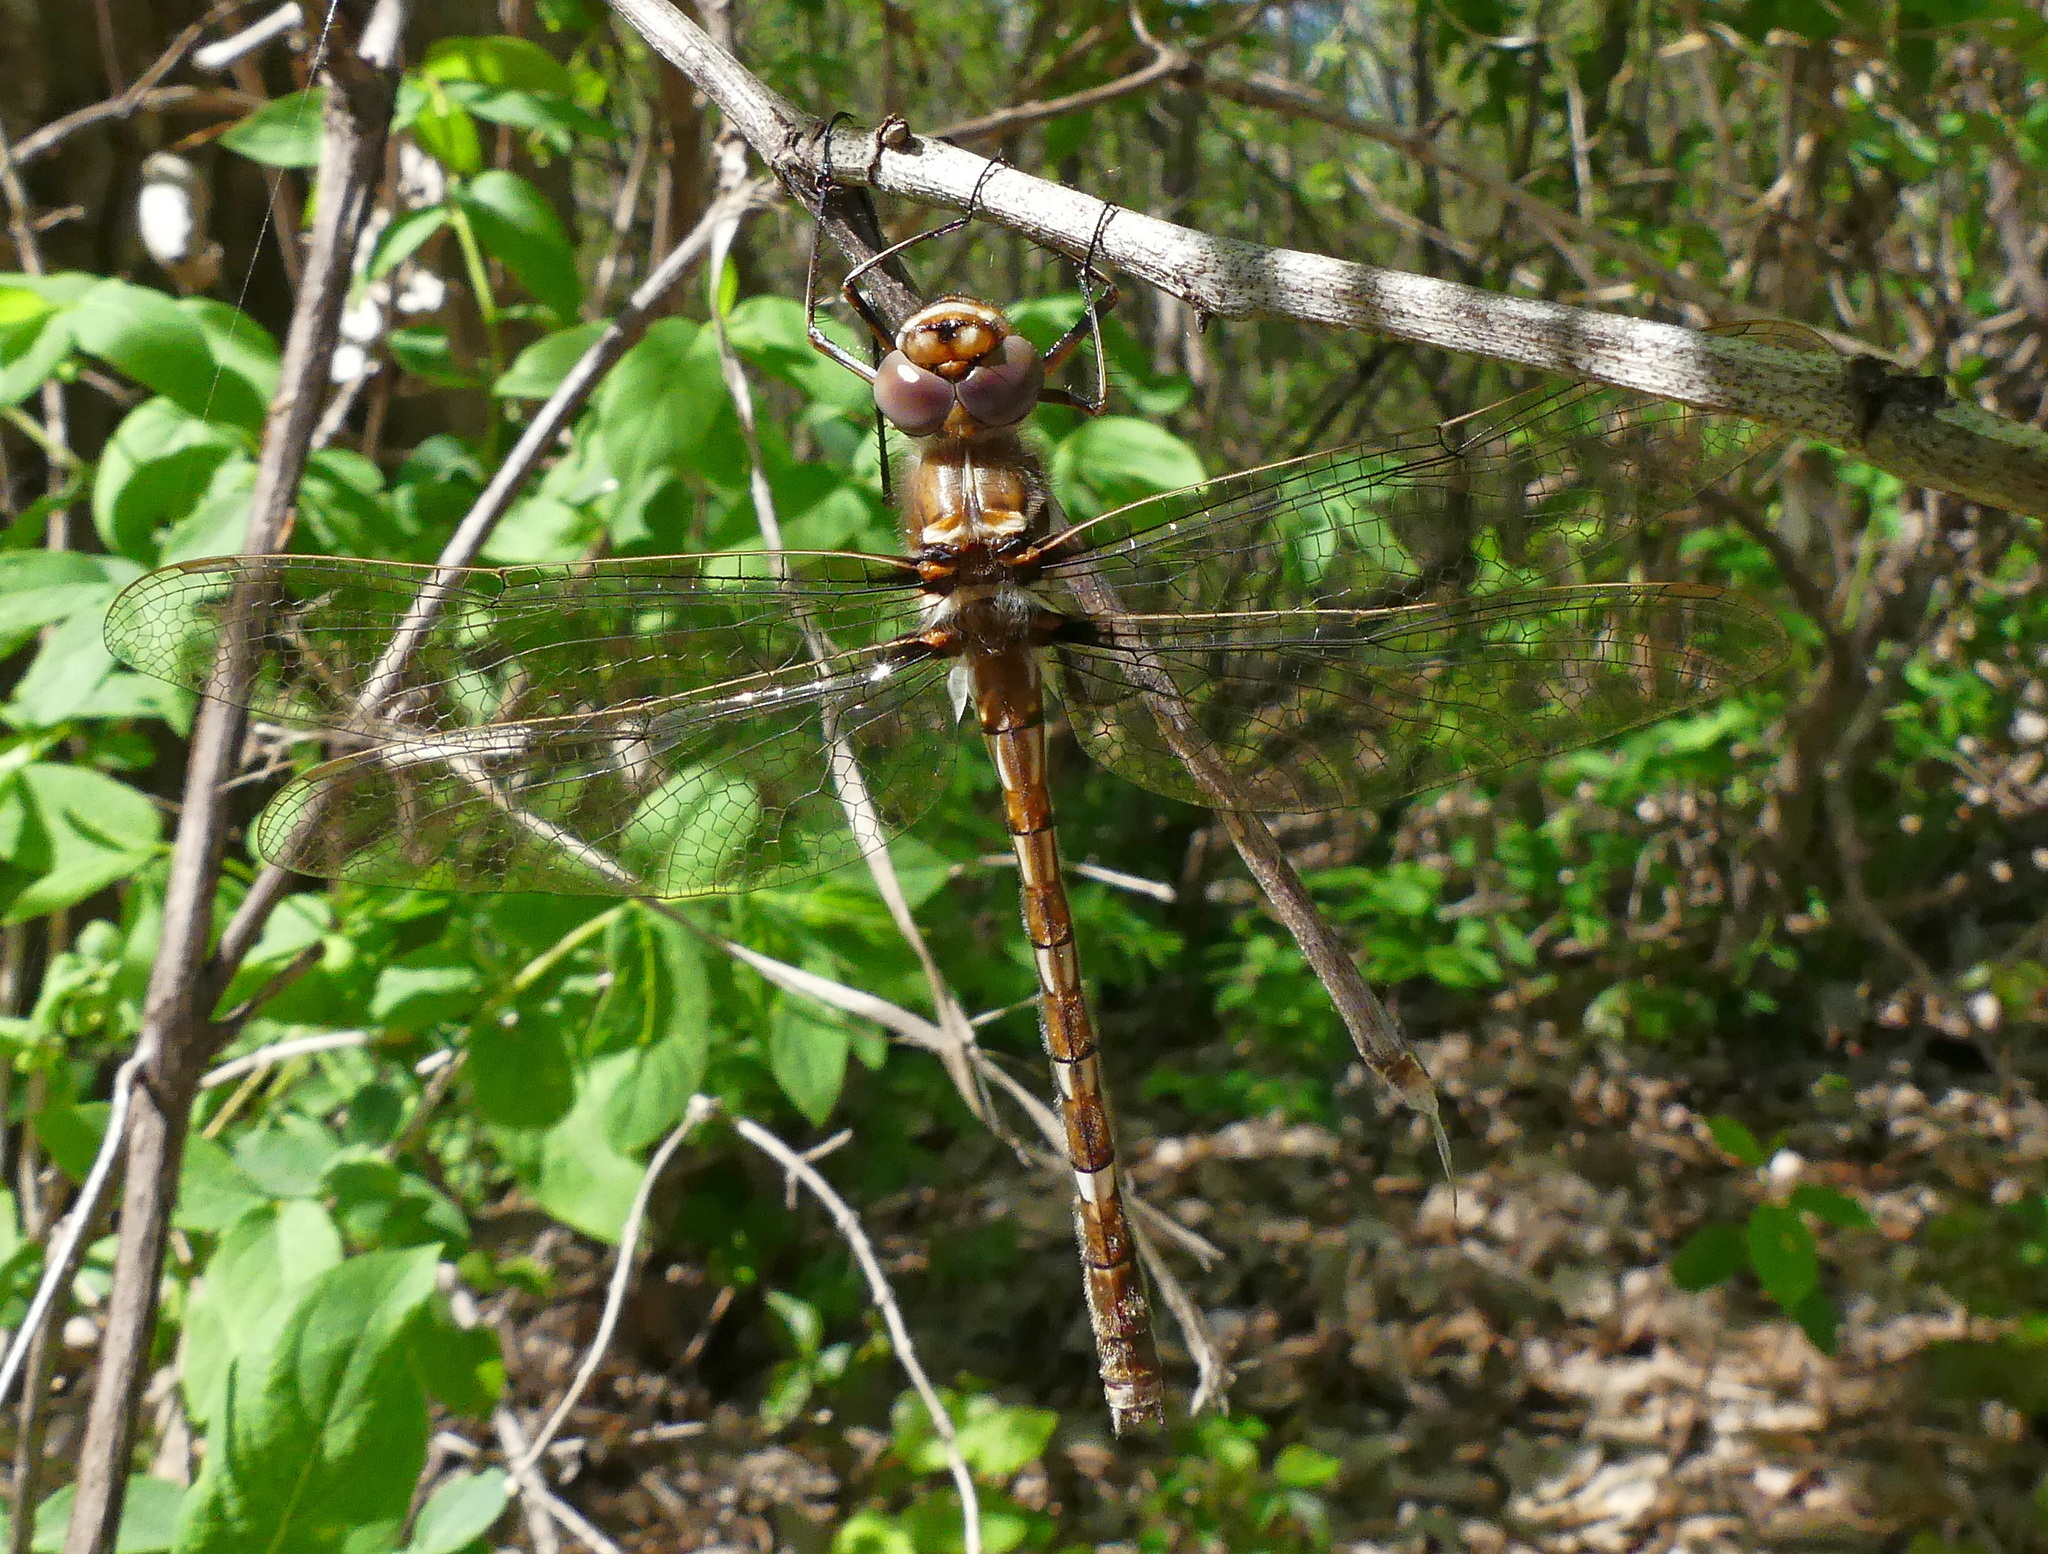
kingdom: Animalia
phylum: Arthropoda
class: Insecta
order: Odonata
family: Macromiidae
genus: Didymops
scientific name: Didymops transversa
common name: Stream cruiser
